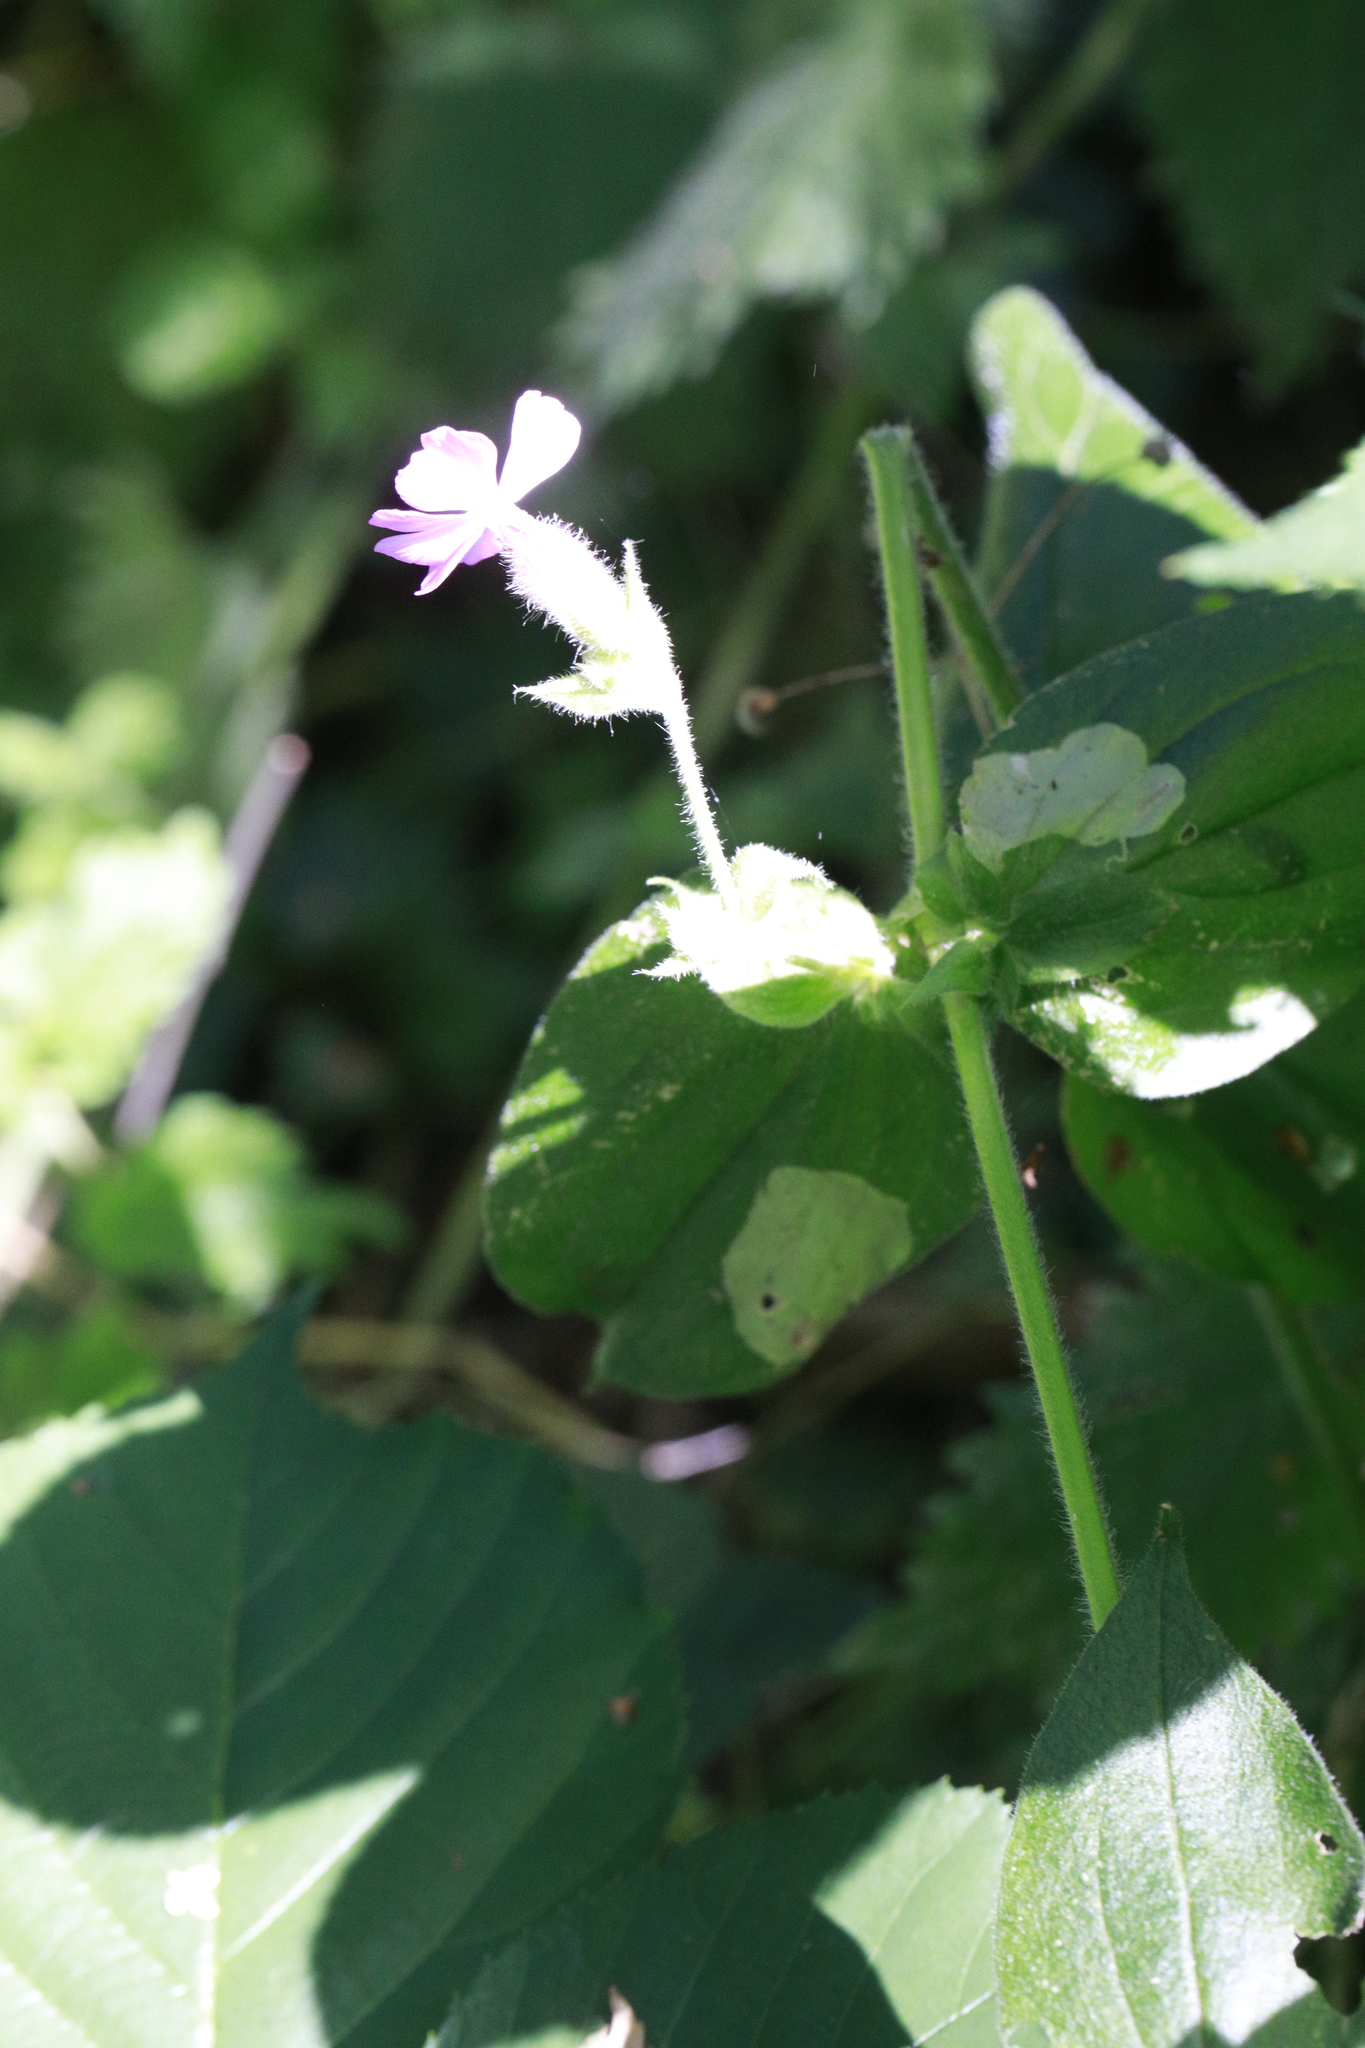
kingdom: Plantae
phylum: Tracheophyta
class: Magnoliopsida
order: Caryophyllales
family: Caryophyllaceae
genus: Silene
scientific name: Silene dioica
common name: Red campion
